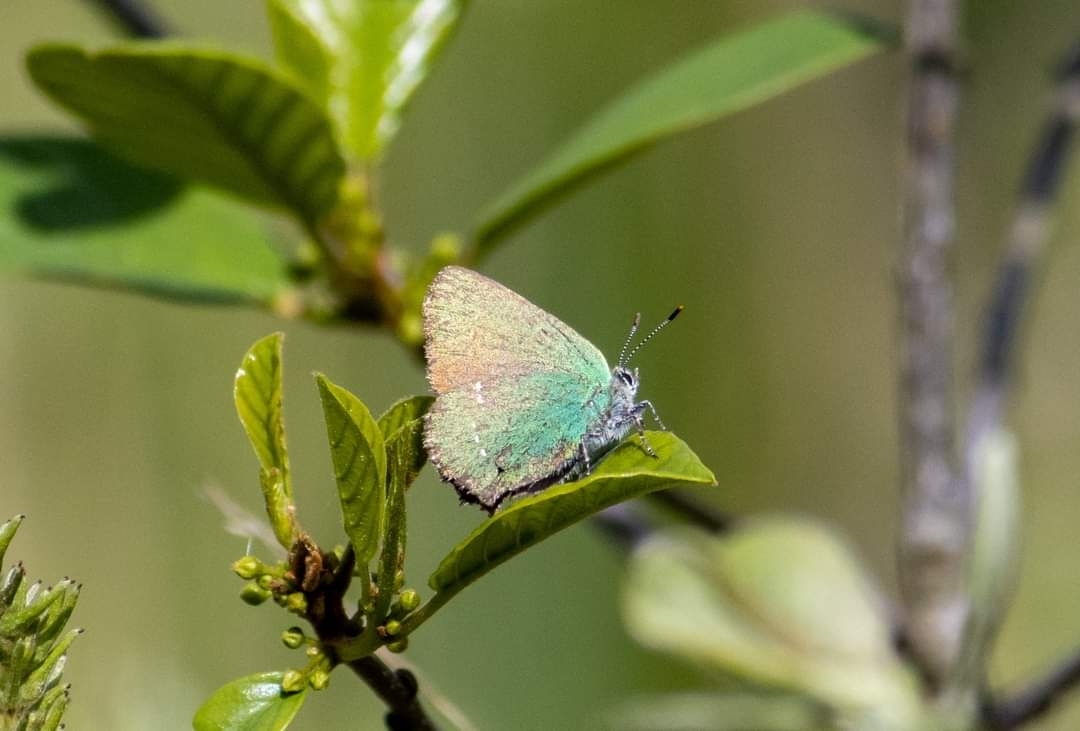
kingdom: Animalia
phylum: Arthropoda
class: Insecta
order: Lepidoptera
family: Lycaenidae
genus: Callophrys
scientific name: Callophrys rubi
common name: Green hairstreak
